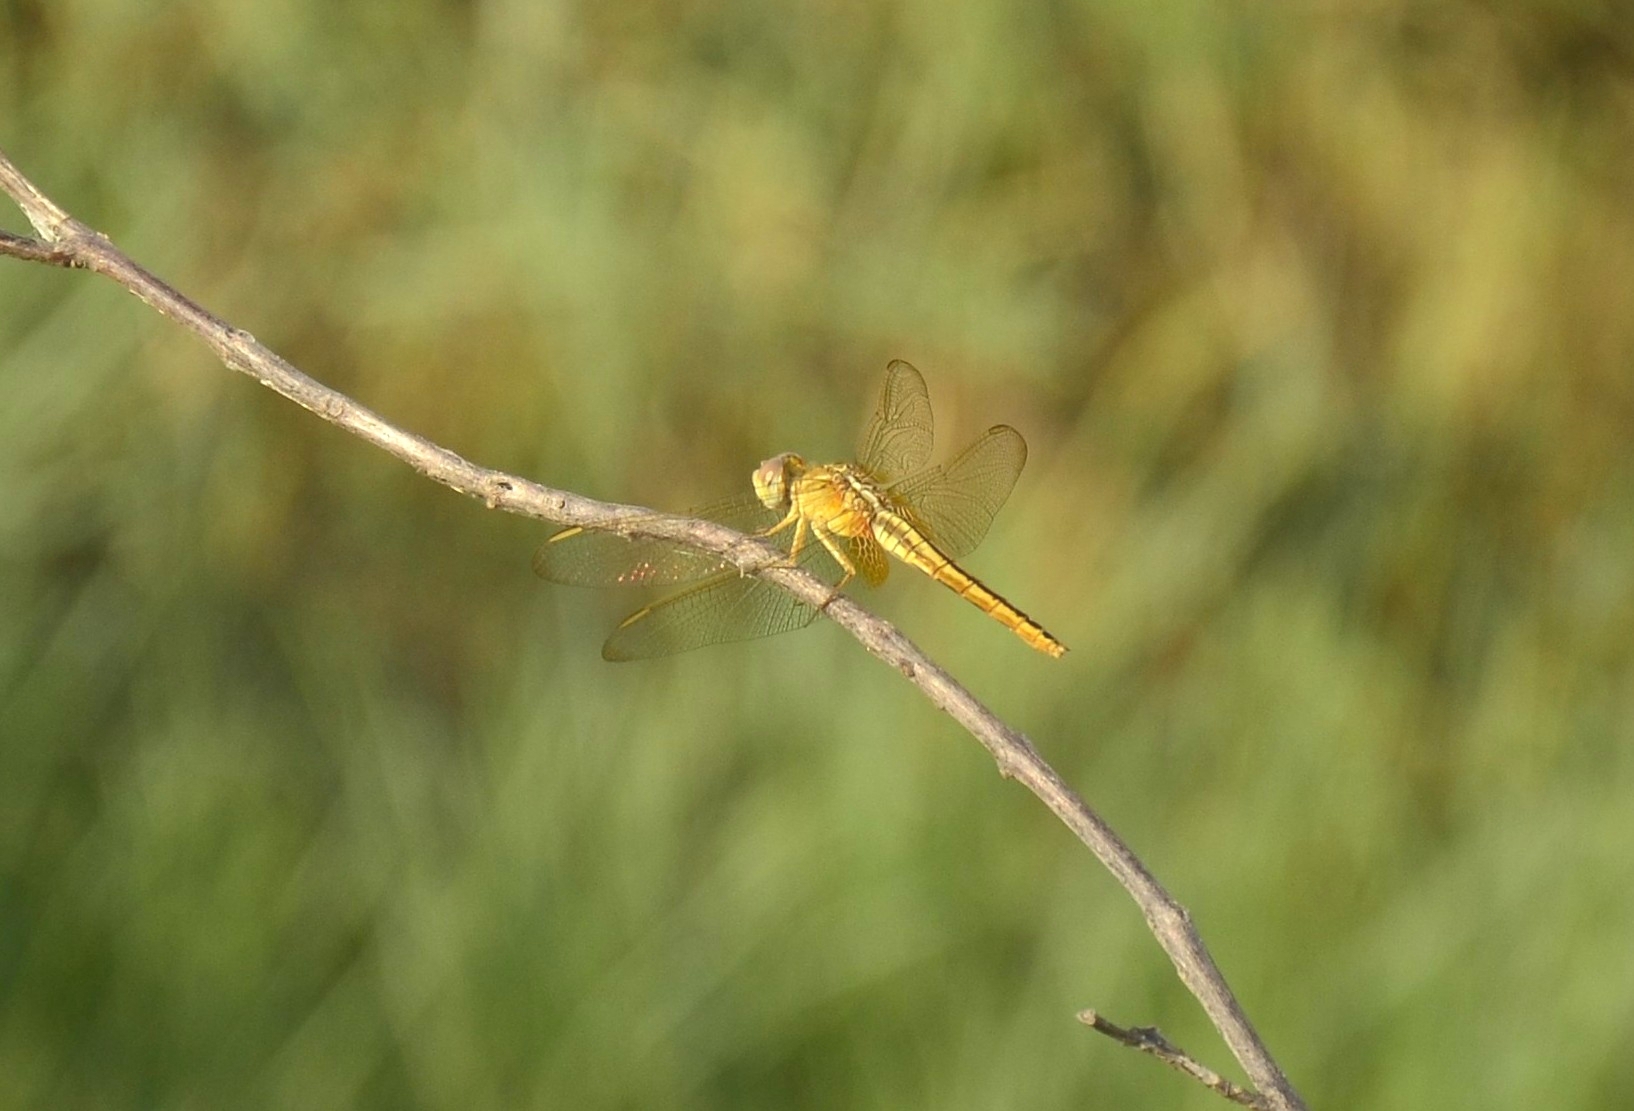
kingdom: Animalia
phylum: Arthropoda
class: Insecta
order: Odonata
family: Libellulidae
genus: Crocothemis
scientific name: Crocothemis servilia
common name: Scarlet skimmer
